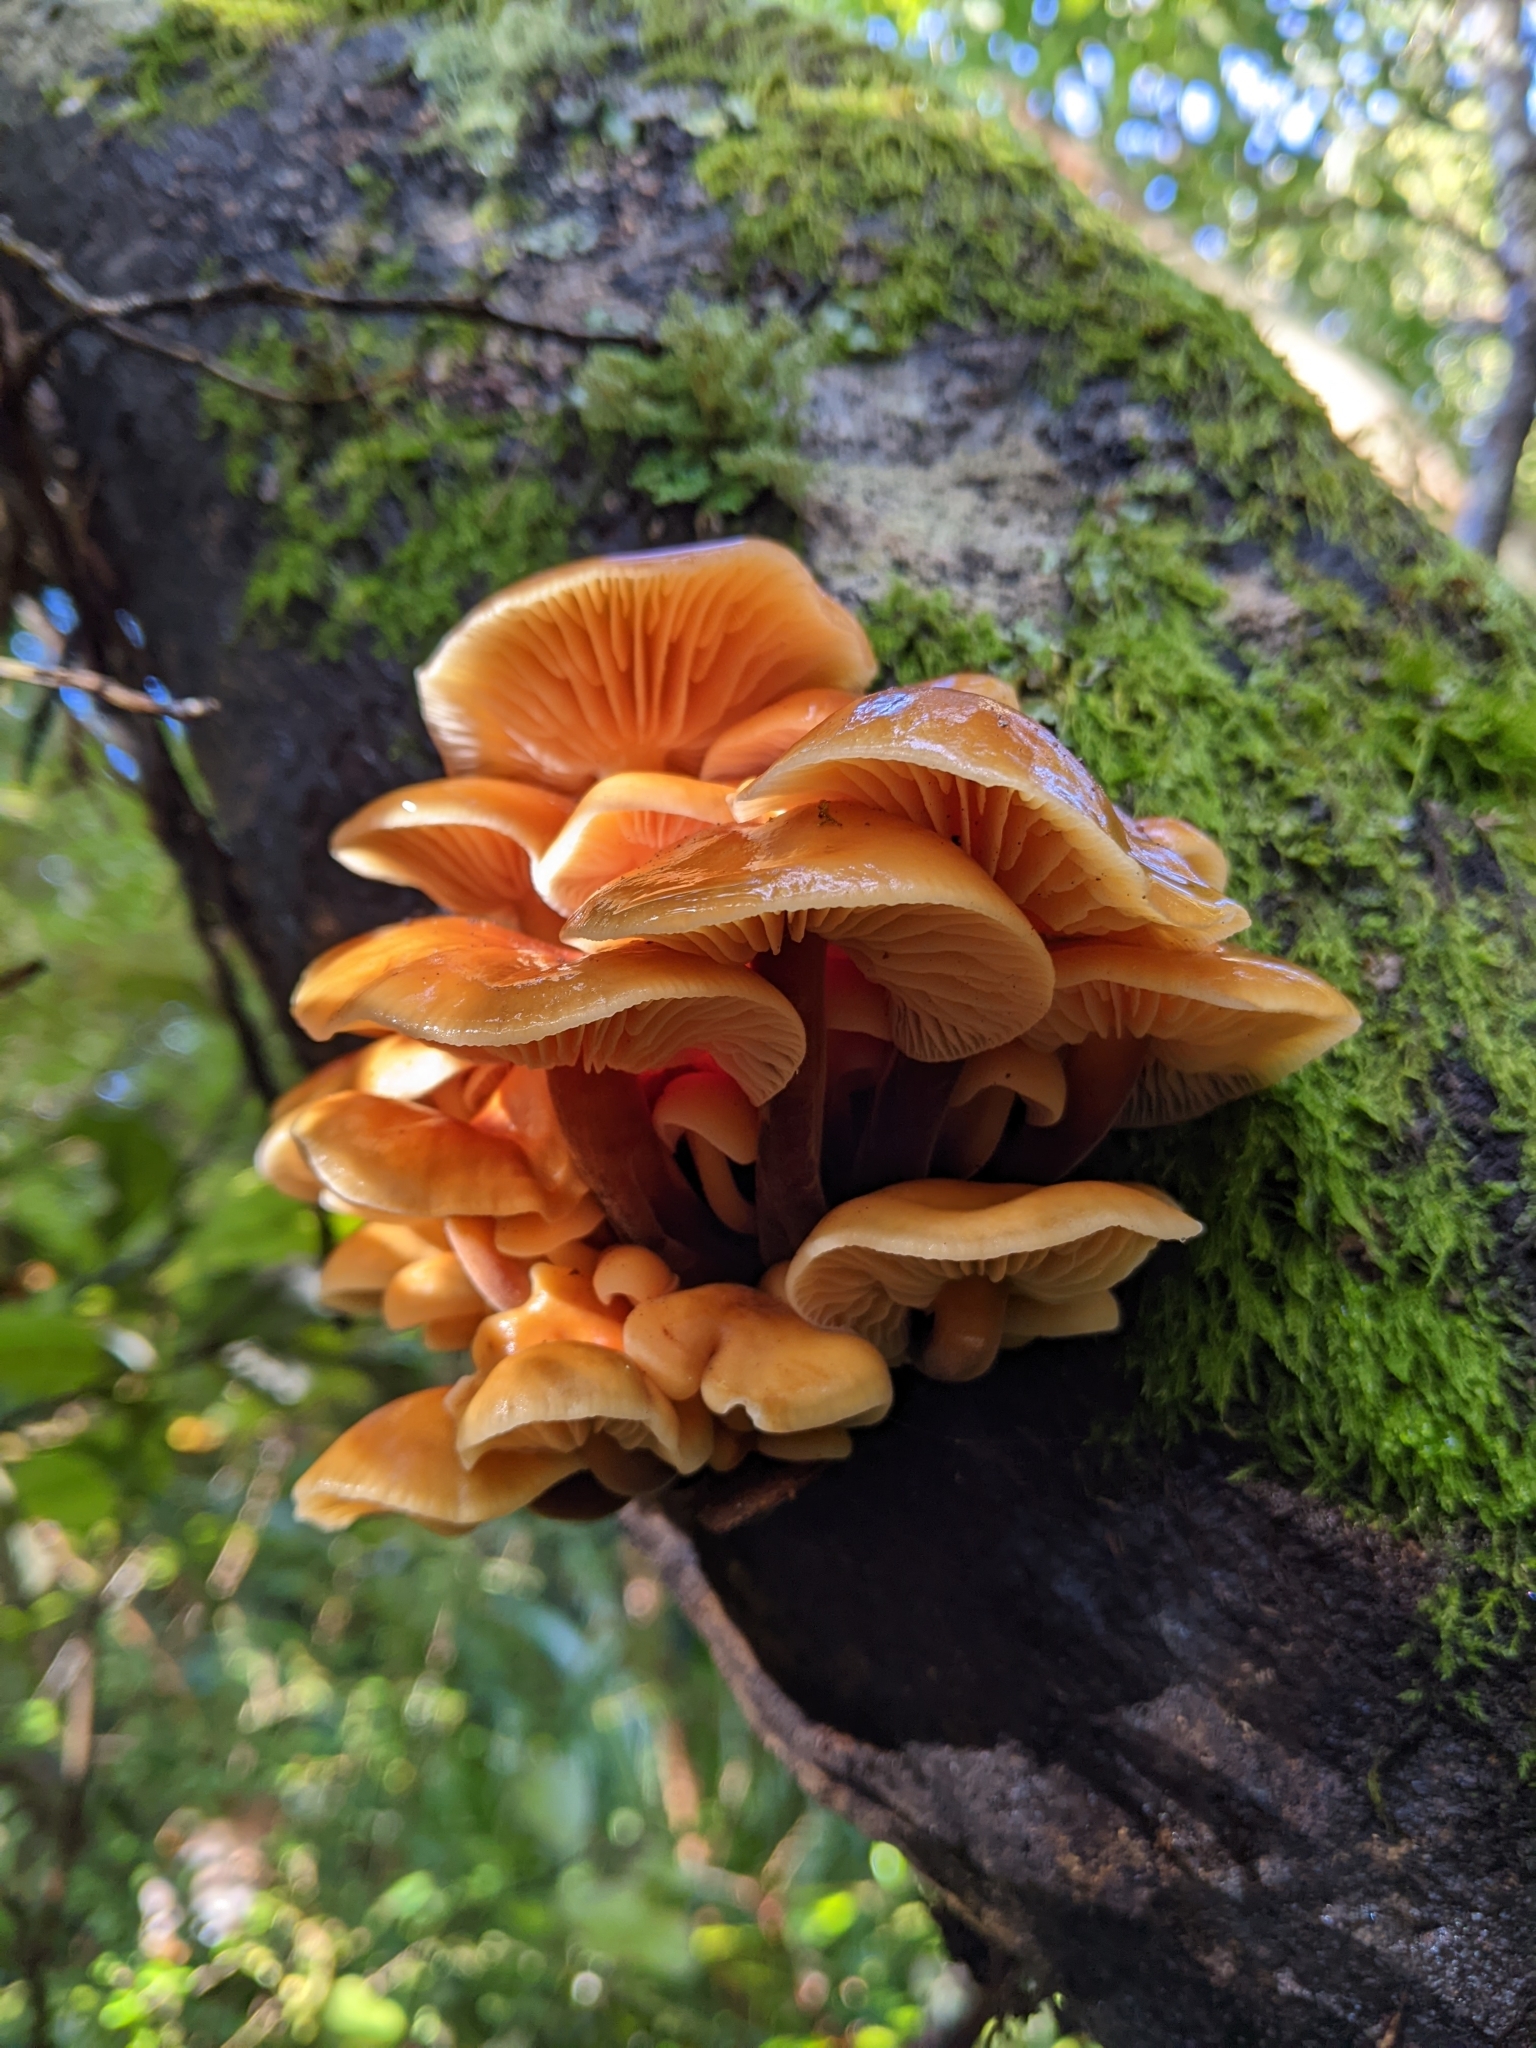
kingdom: Fungi
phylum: Basidiomycota
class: Agaricomycetes
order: Agaricales
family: Physalacriaceae
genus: Flammulina
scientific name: Flammulina velutipes
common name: Velvet shank
